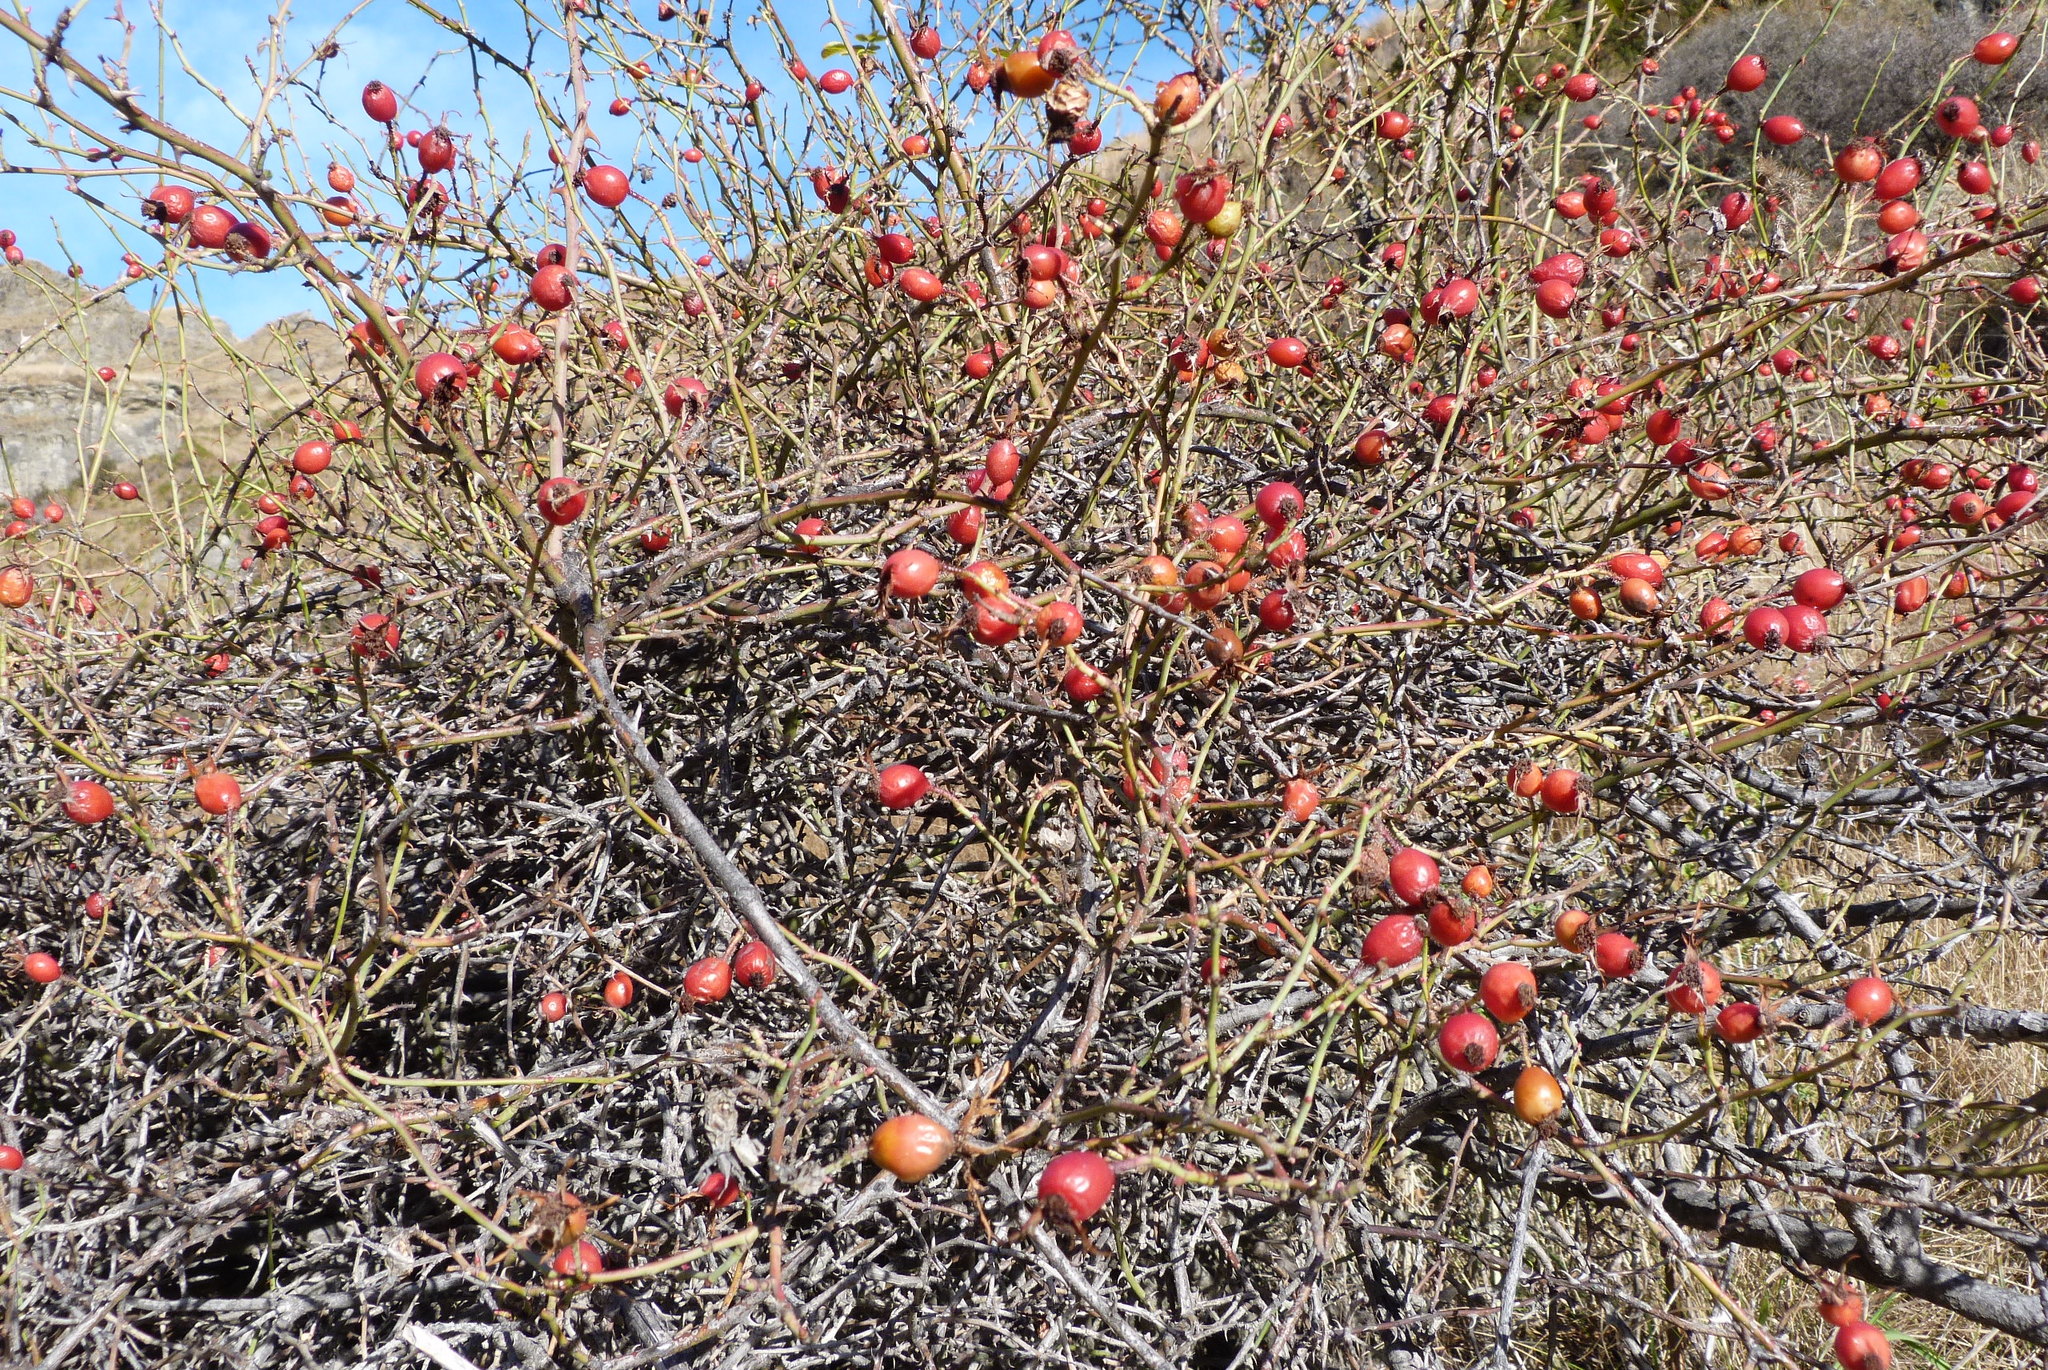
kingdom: Plantae
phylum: Tracheophyta
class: Magnoliopsida
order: Rosales
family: Rosaceae
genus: Rosa
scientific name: Rosa rubiginosa
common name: Sweet-briar
